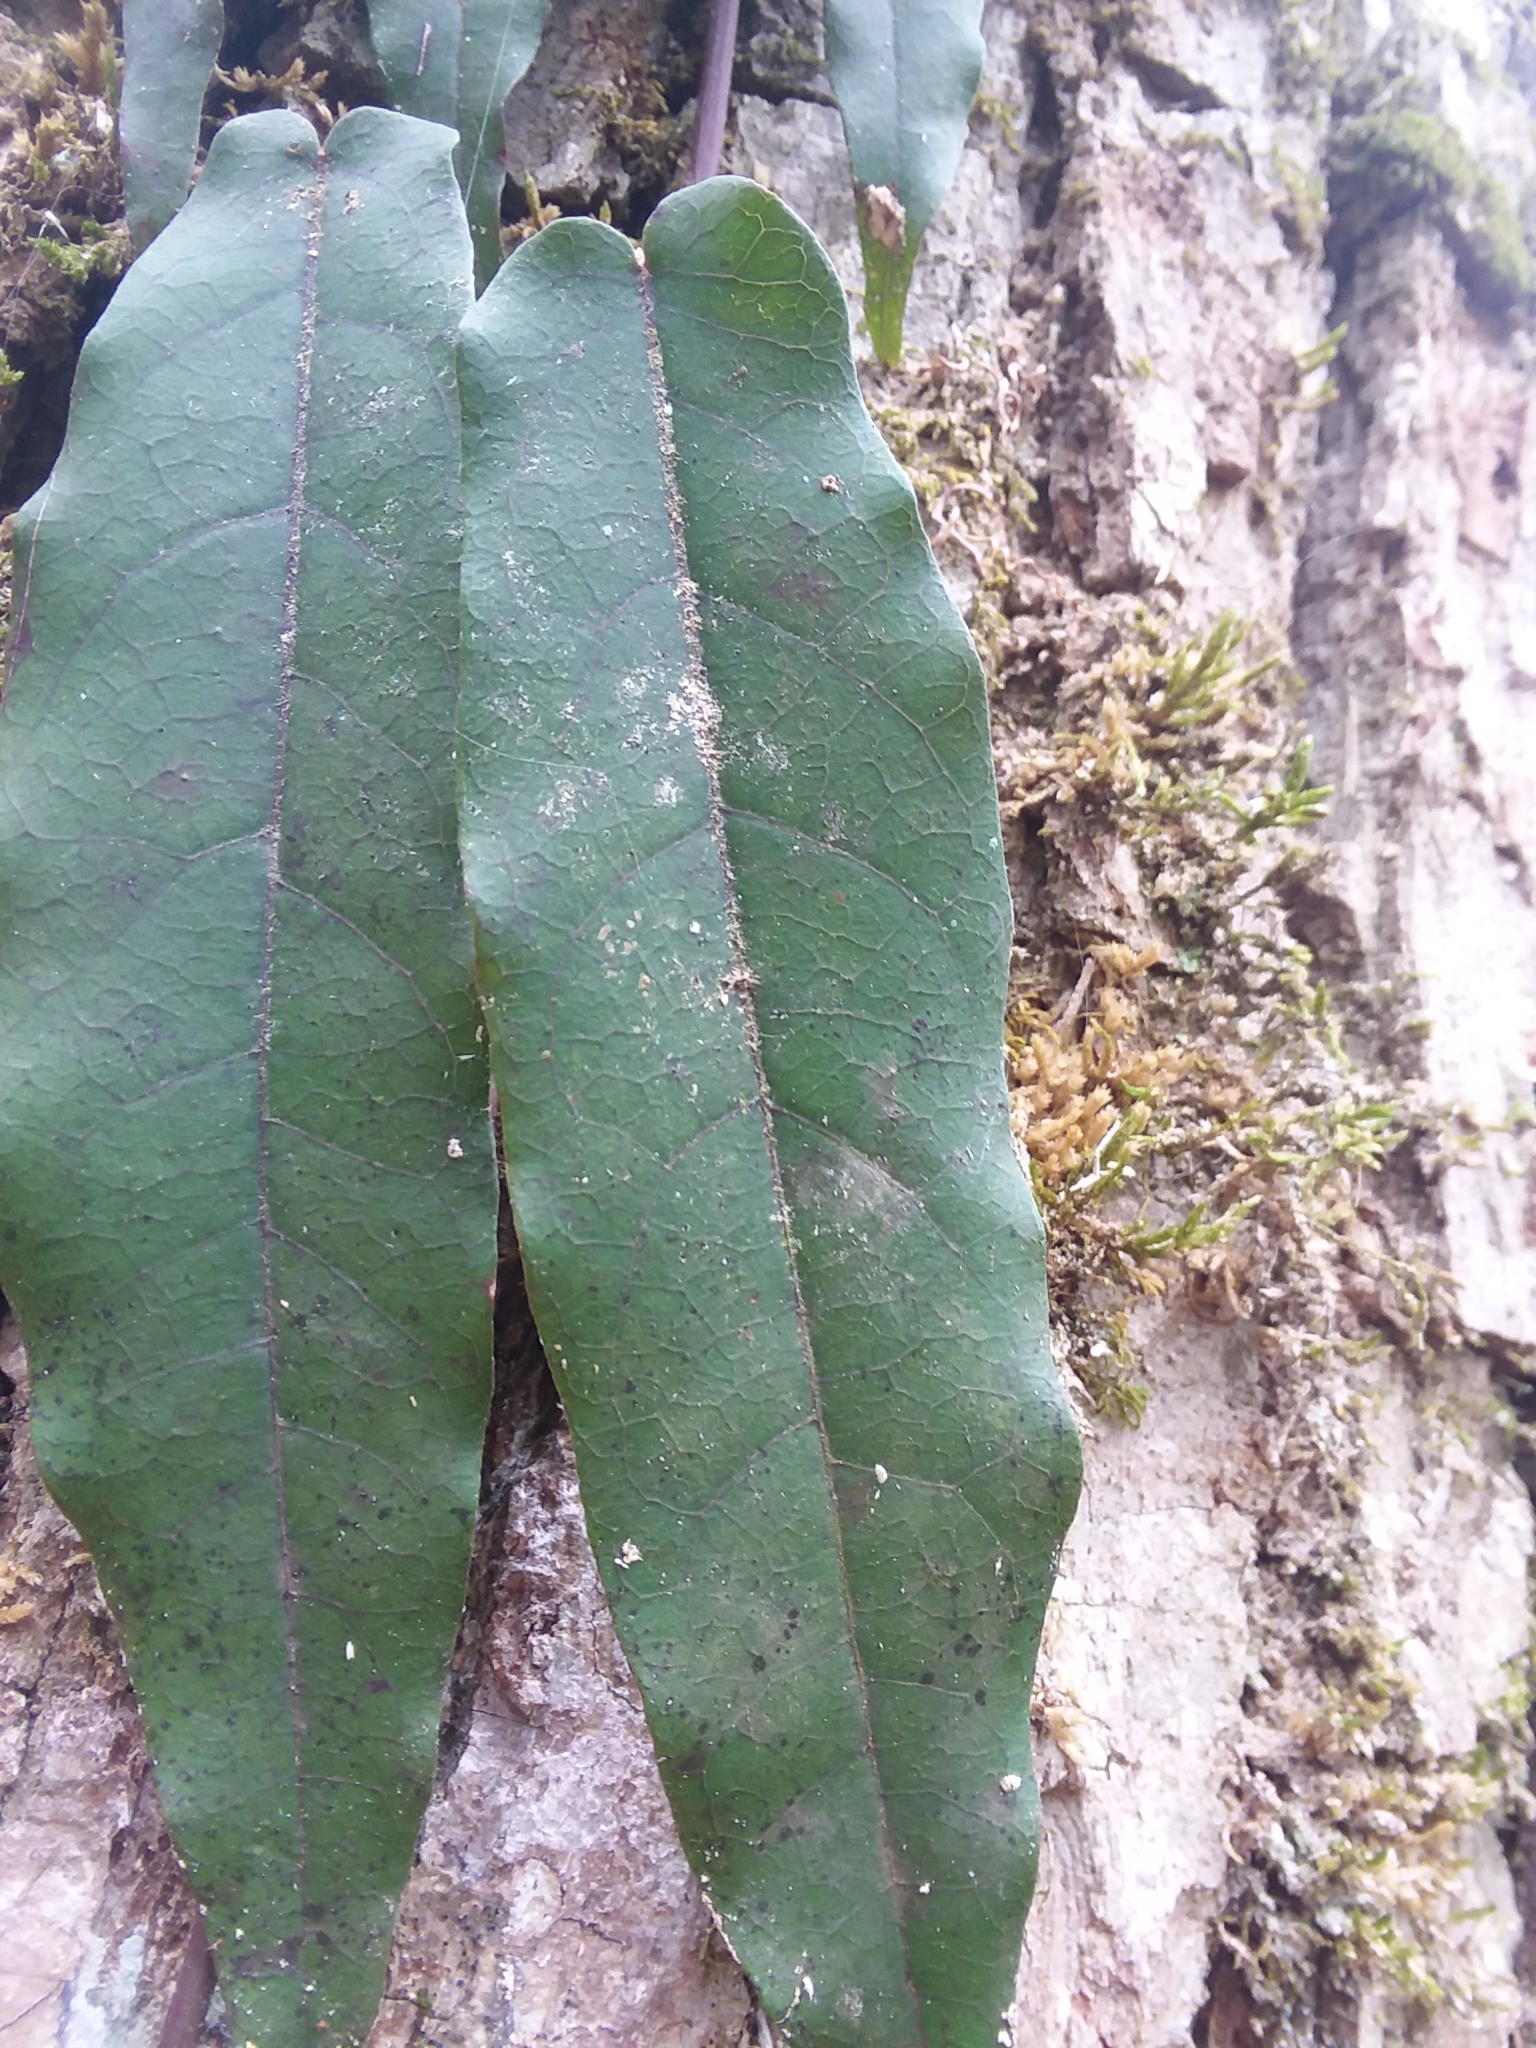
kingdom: Plantae
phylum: Tracheophyta
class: Magnoliopsida
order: Lamiales
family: Bignoniaceae
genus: Bignonia
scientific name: Bignonia capreolata
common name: Crossvine
